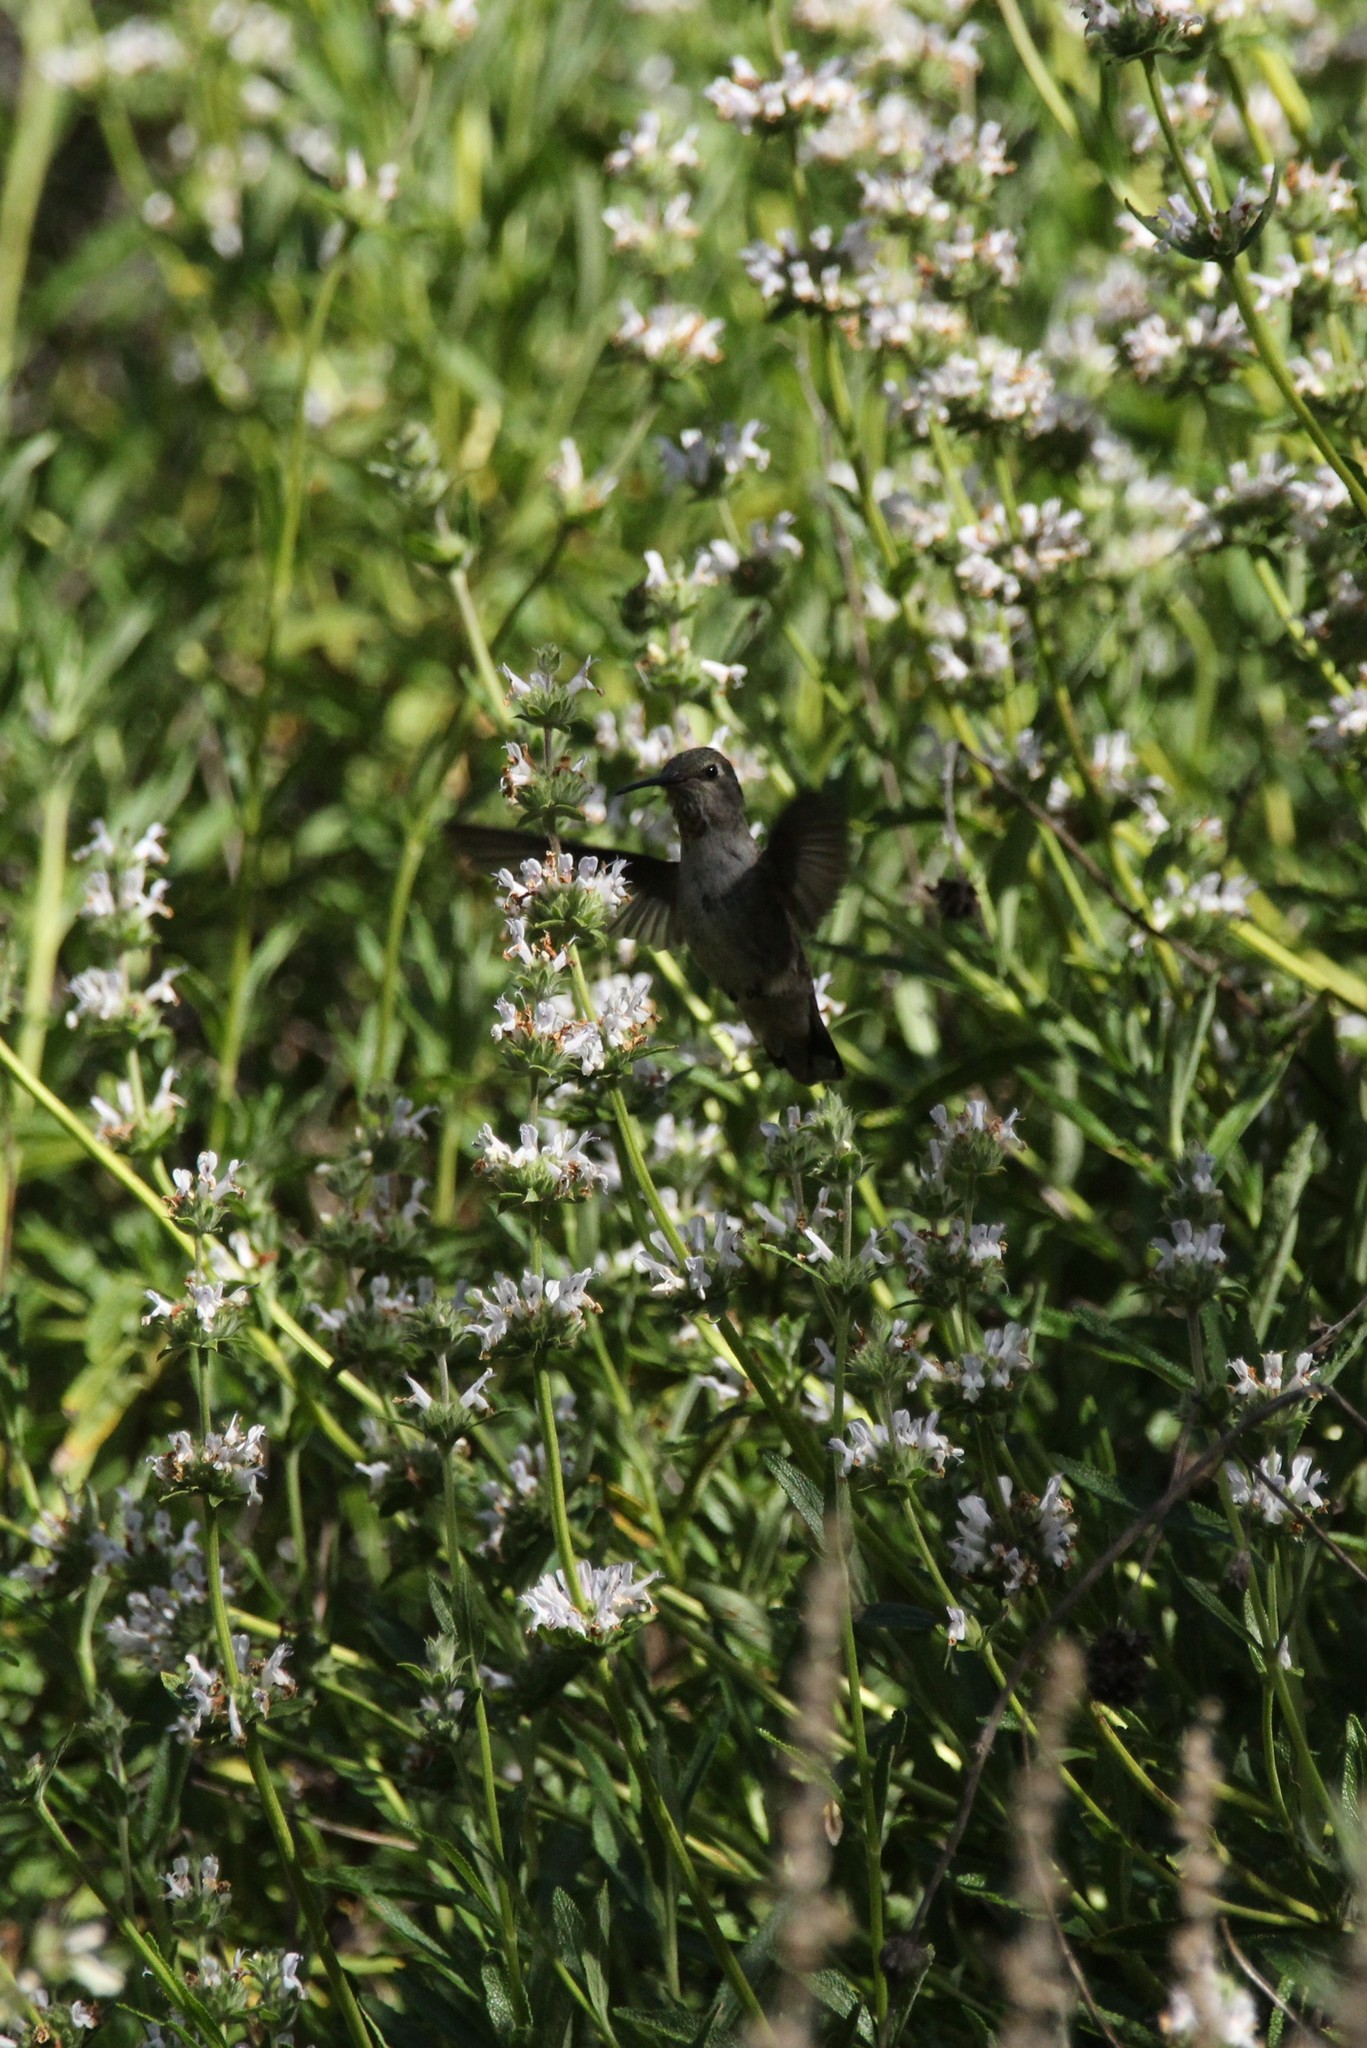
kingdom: Animalia
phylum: Chordata
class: Aves
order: Apodiformes
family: Trochilidae
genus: Calypte
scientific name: Calypte anna
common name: Anna's hummingbird
